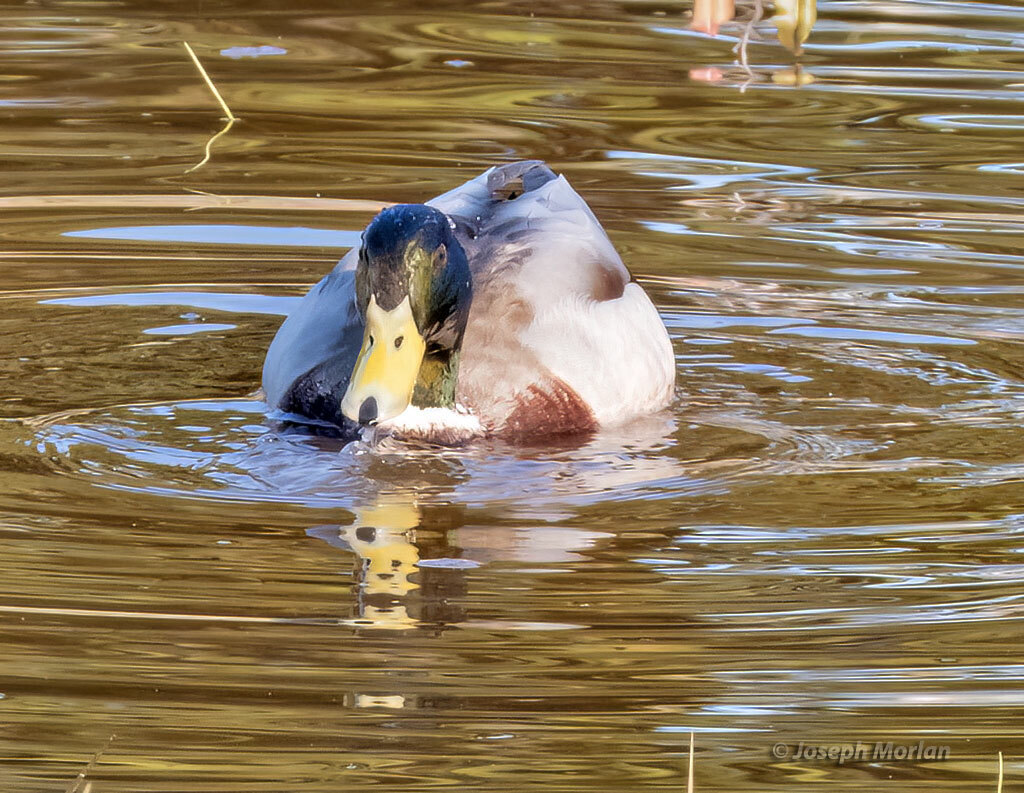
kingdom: Animalia
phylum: Chordata
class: Aves
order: Anseriformes
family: Anatidae
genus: Anas
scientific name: Anas platyrhynchos
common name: Mallard
